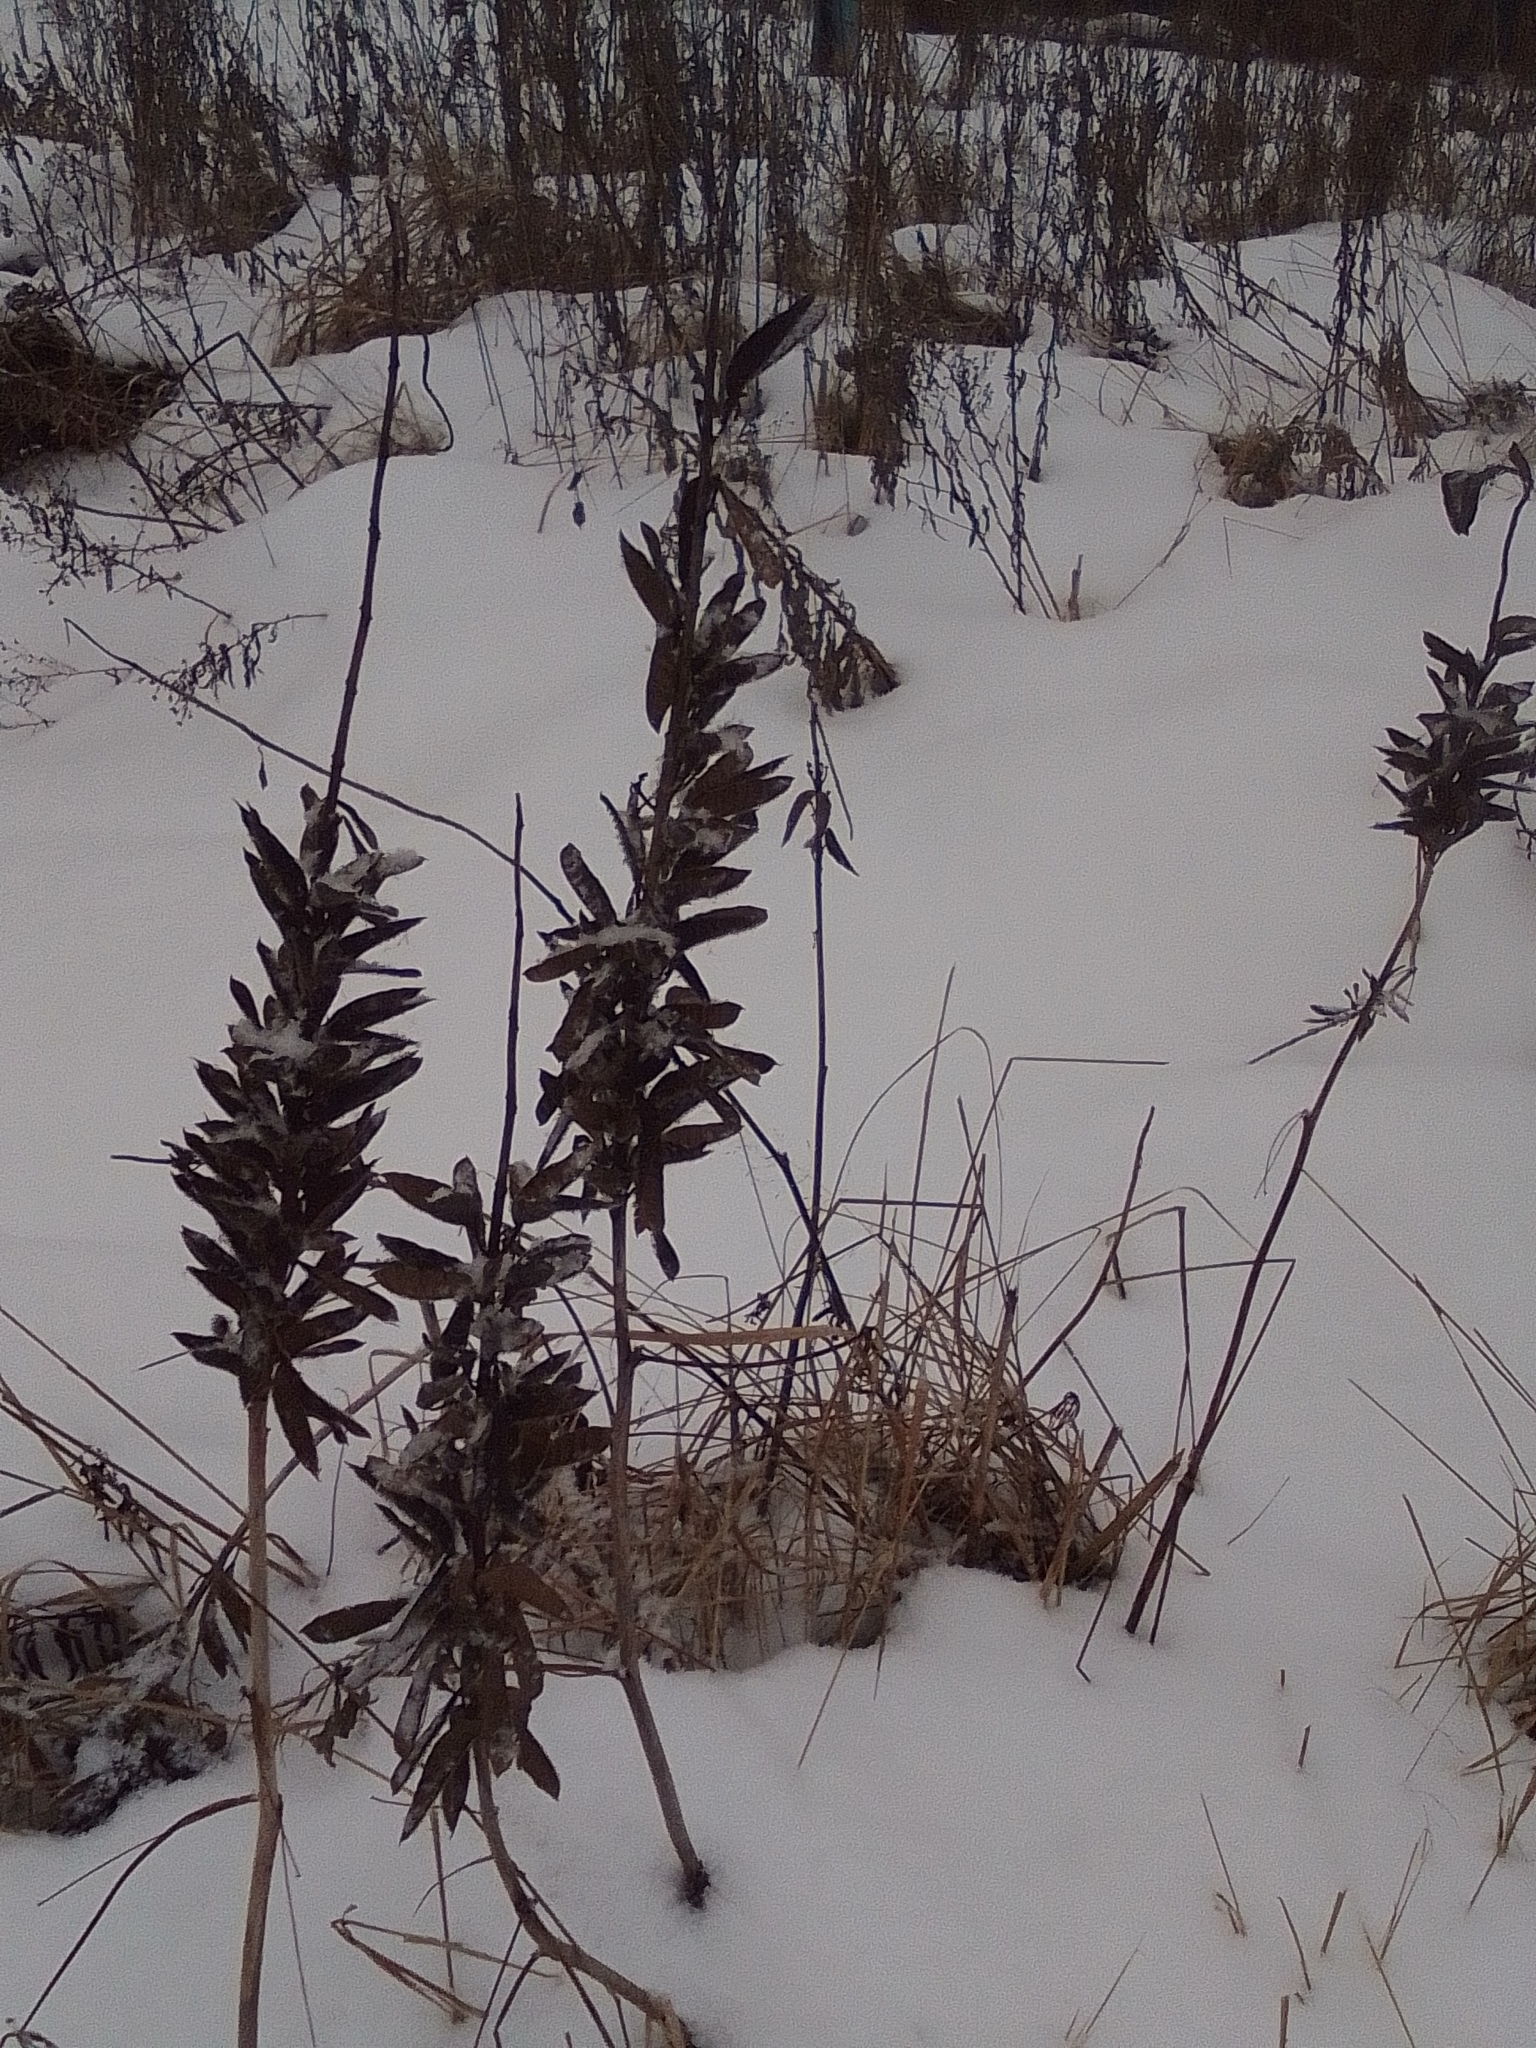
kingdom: Plantae
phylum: Tracheophyta
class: Magnoliopsida
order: Fabales
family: Fabaceae
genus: Lupinus
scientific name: Lupinus polyphyllus
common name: Garden lupin
